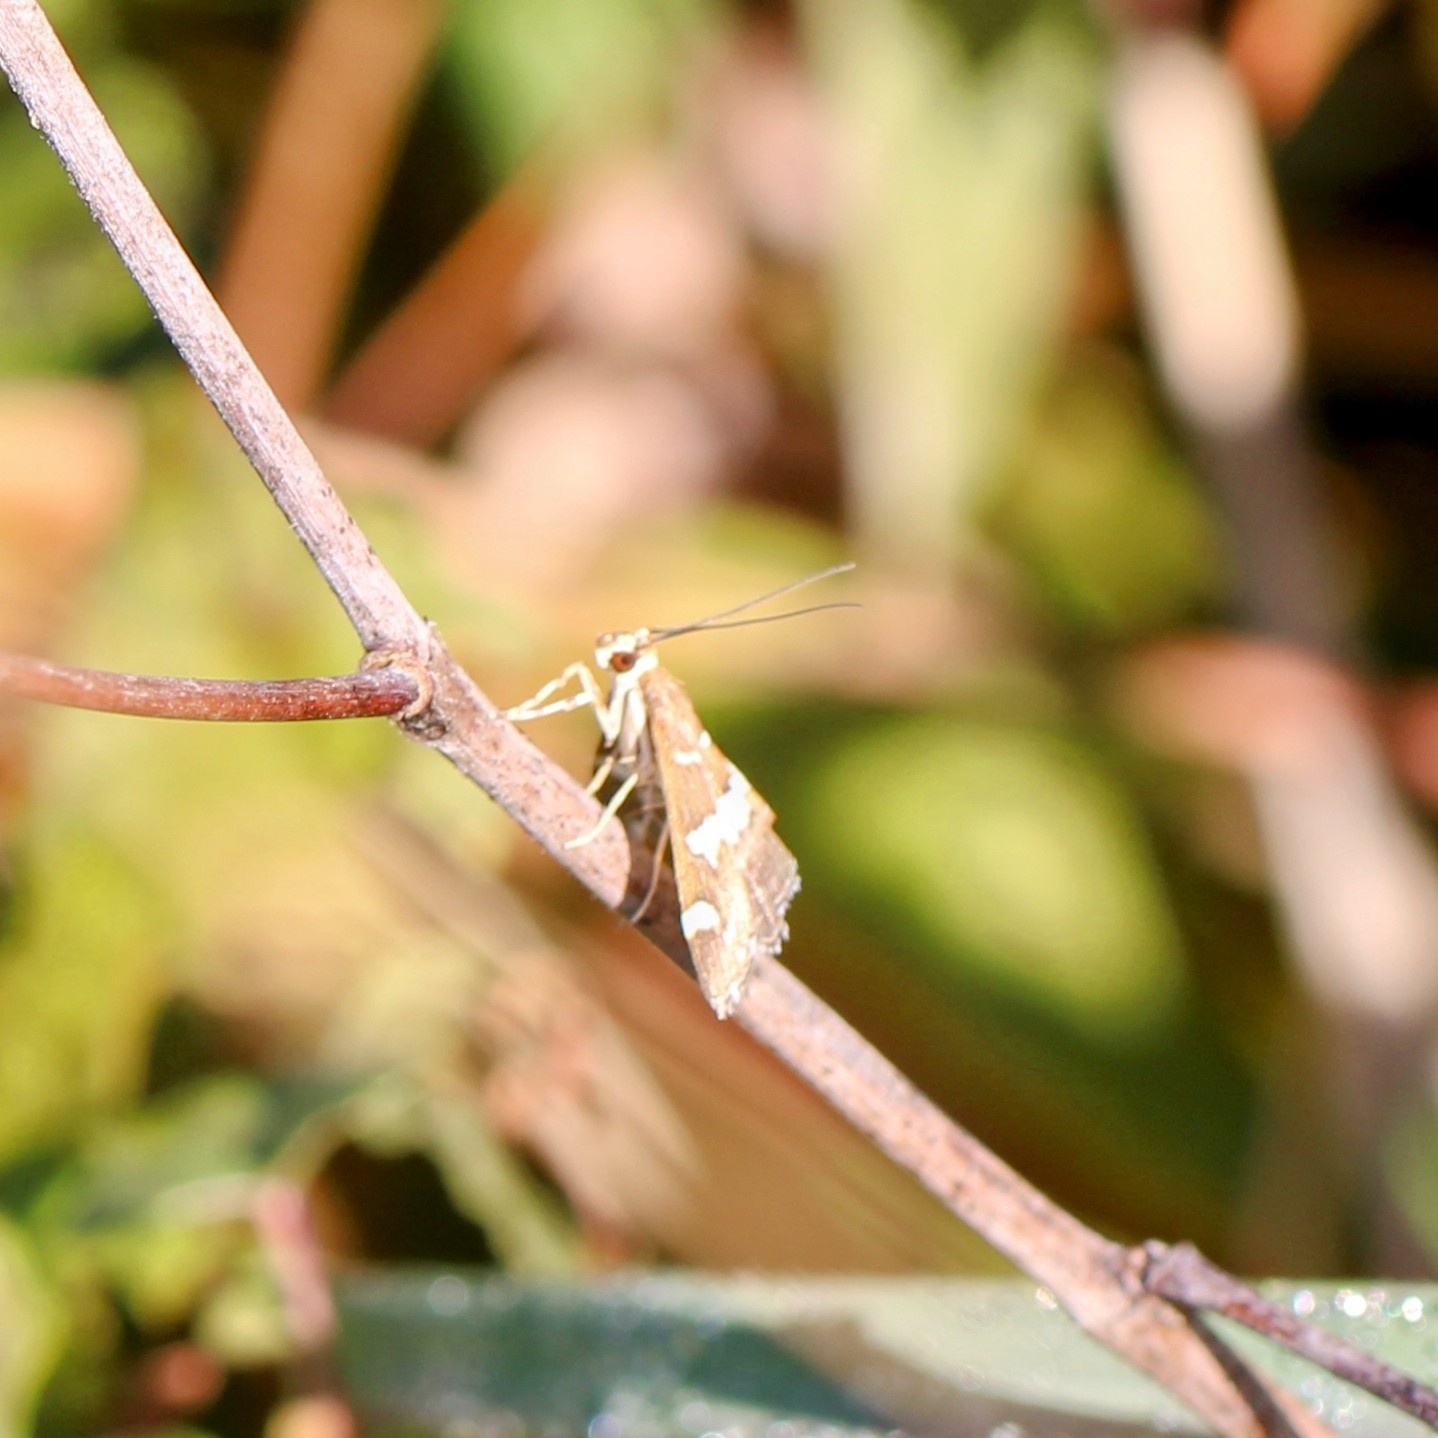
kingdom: Animalia
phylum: Arthropoda
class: Insecta
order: Lepidoptera
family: Crambidae
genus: Spoladea
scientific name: Spoladea recurvalis
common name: Beet webworm moth
